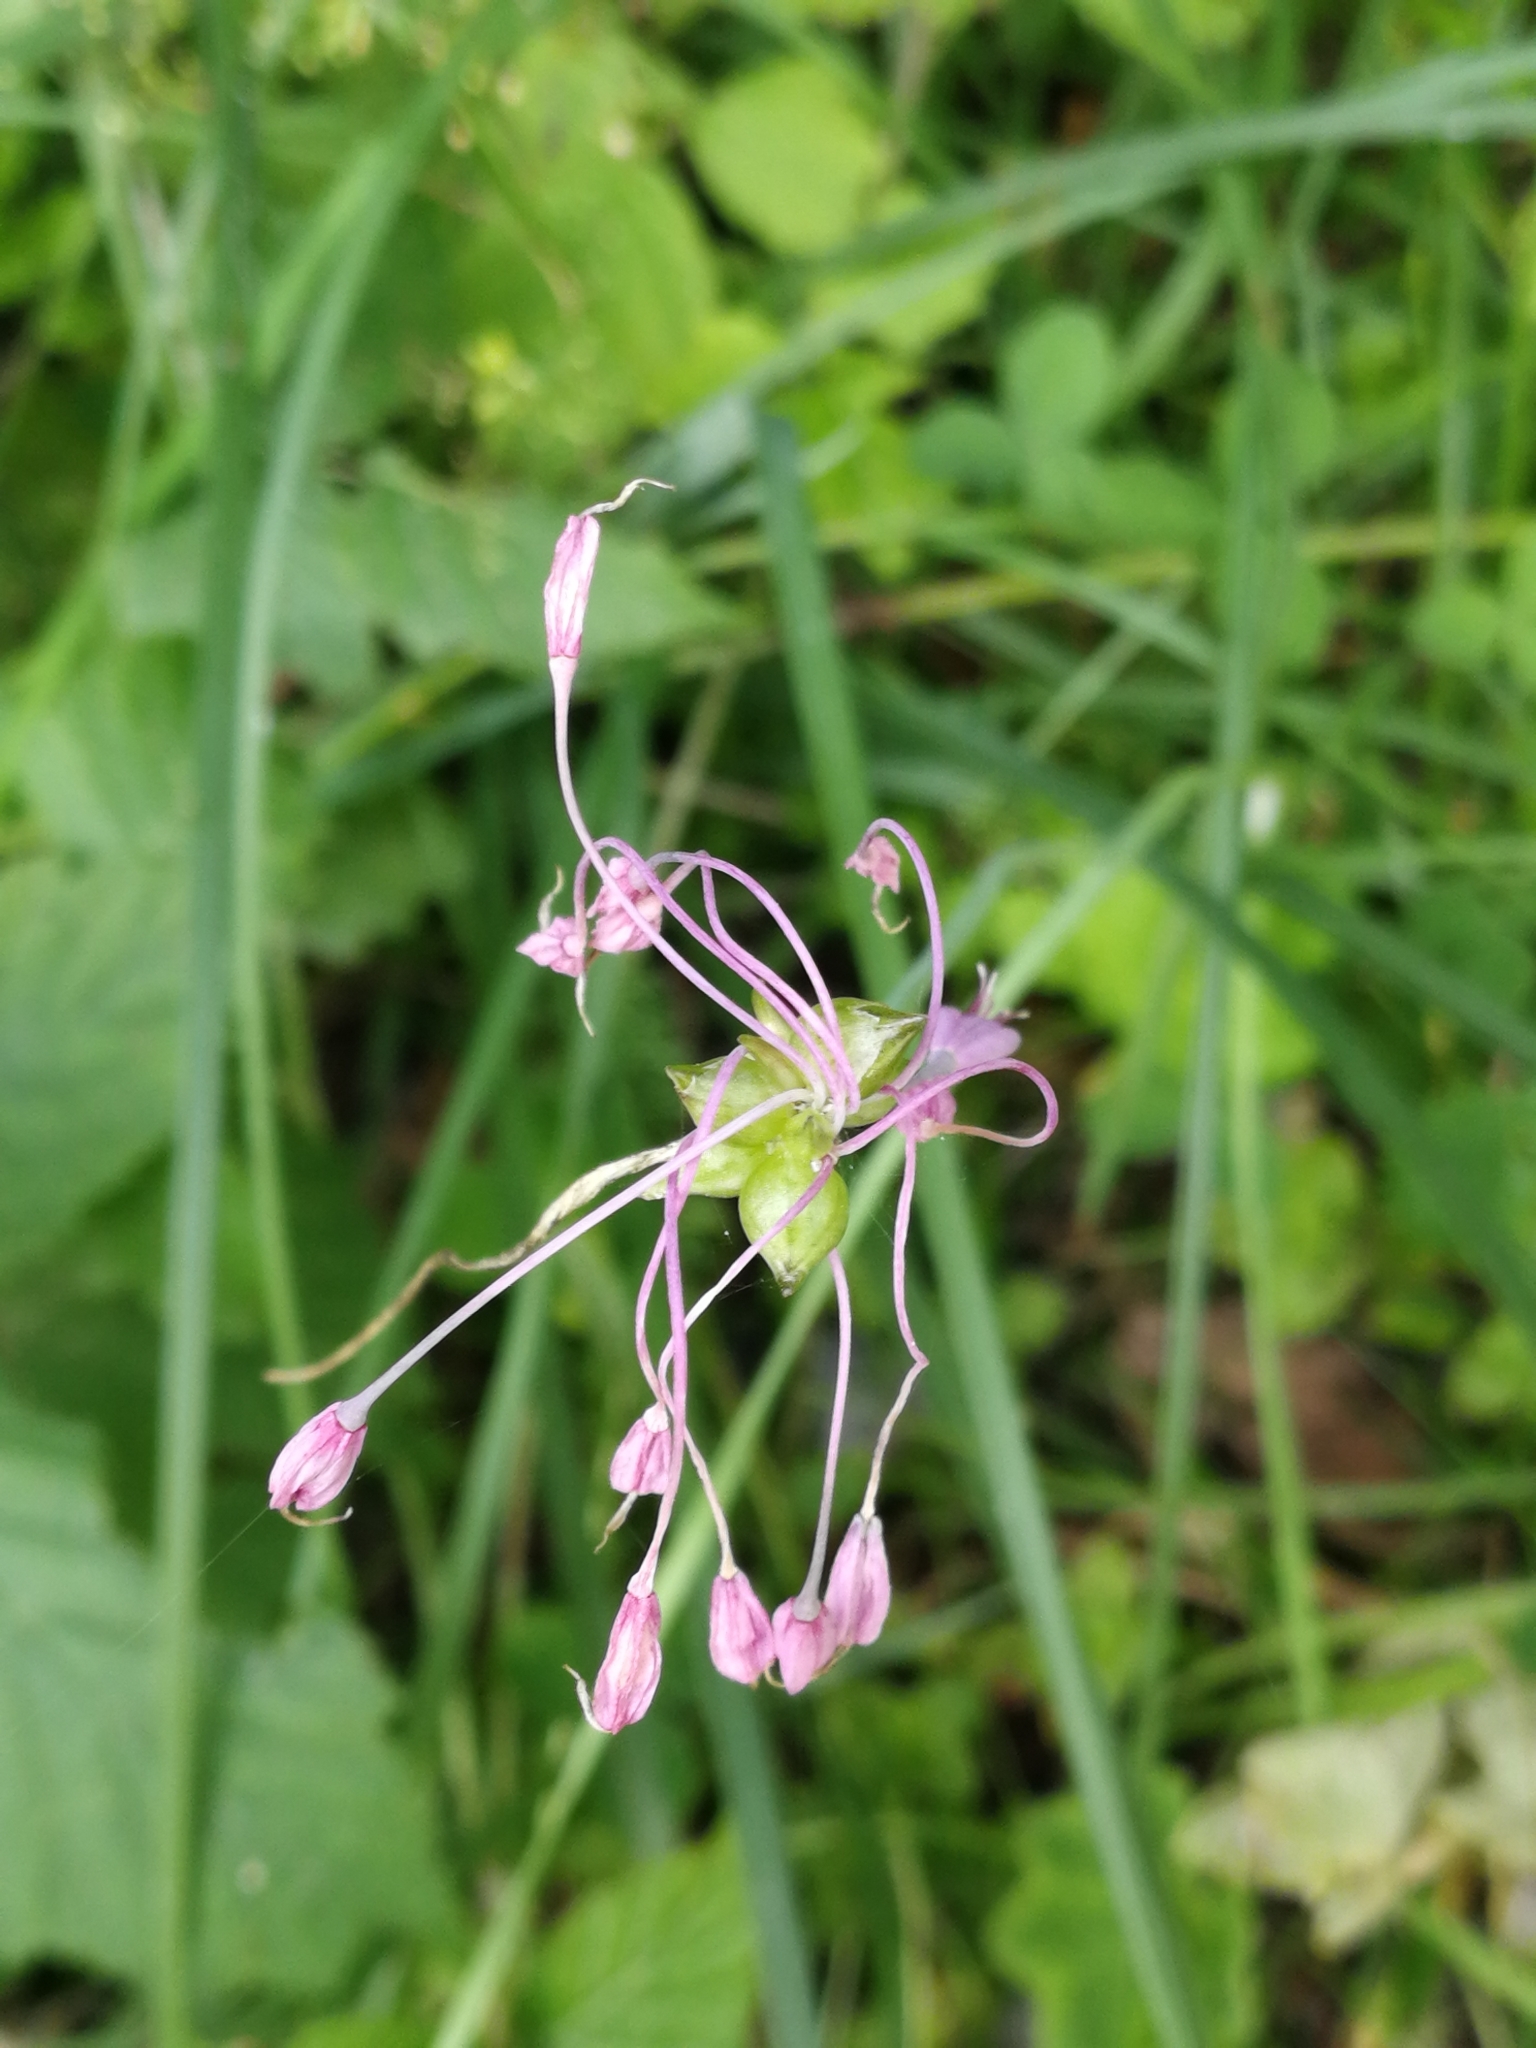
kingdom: Plantae
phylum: Tracheophyta
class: Liliopsida
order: Asparagales
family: Amaryllidaceae
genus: Allium
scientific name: Allium carinatum
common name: Keeled garlic
